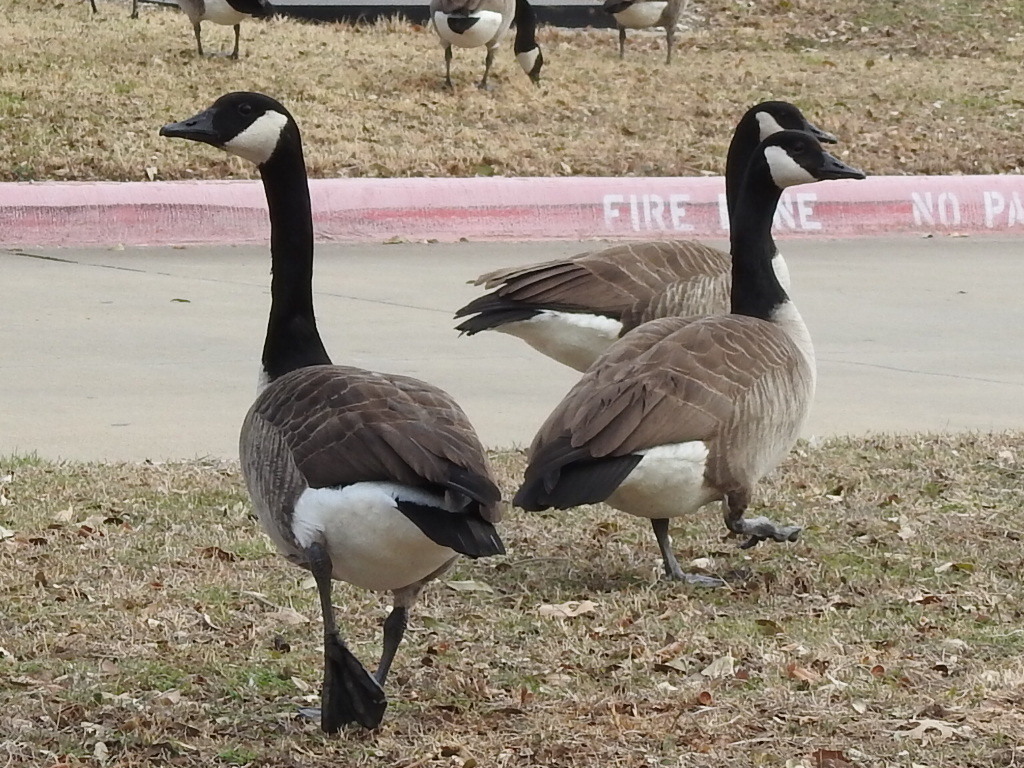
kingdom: Animalia
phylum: Chordata
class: Aves
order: Anseriformes
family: Anatidae
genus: Branta
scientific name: Branta canadensis
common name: Canada goose
